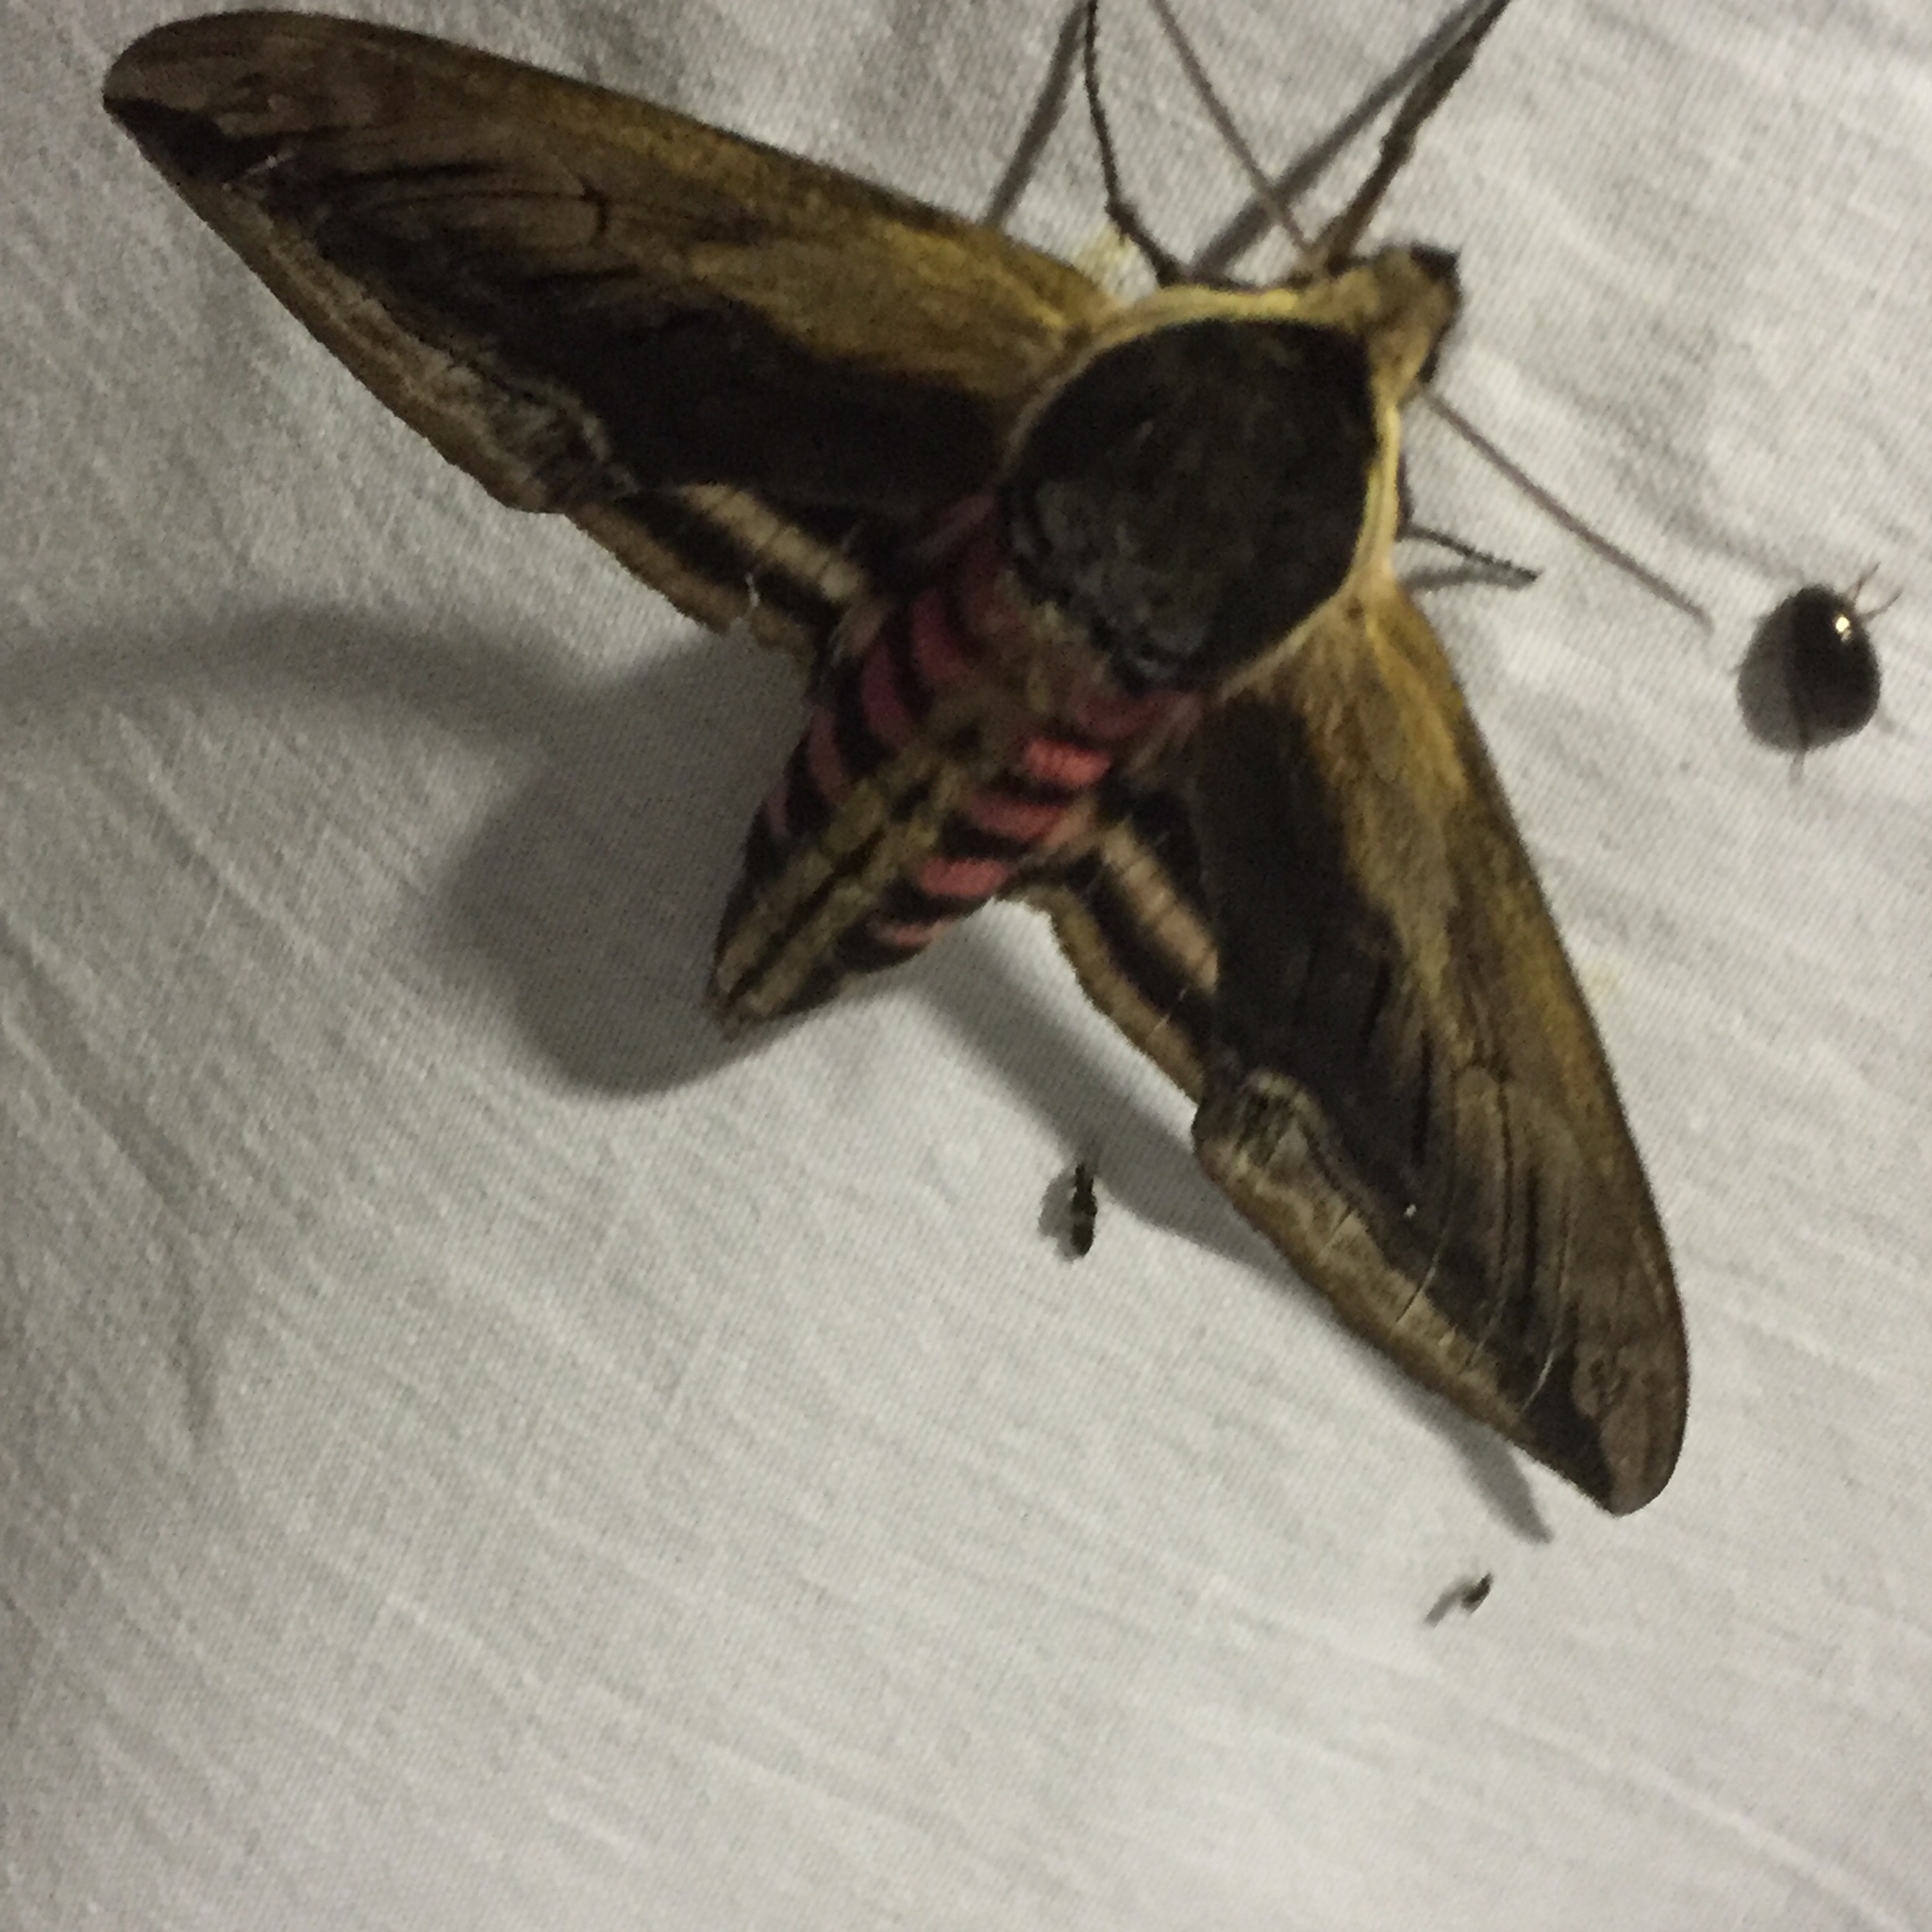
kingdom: Animalia
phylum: Arthropoda
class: Insecta
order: Lepidoptera
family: Sphingidae
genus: Sphinx
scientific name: Sphinx ligustri
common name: Privet hawk-moth
